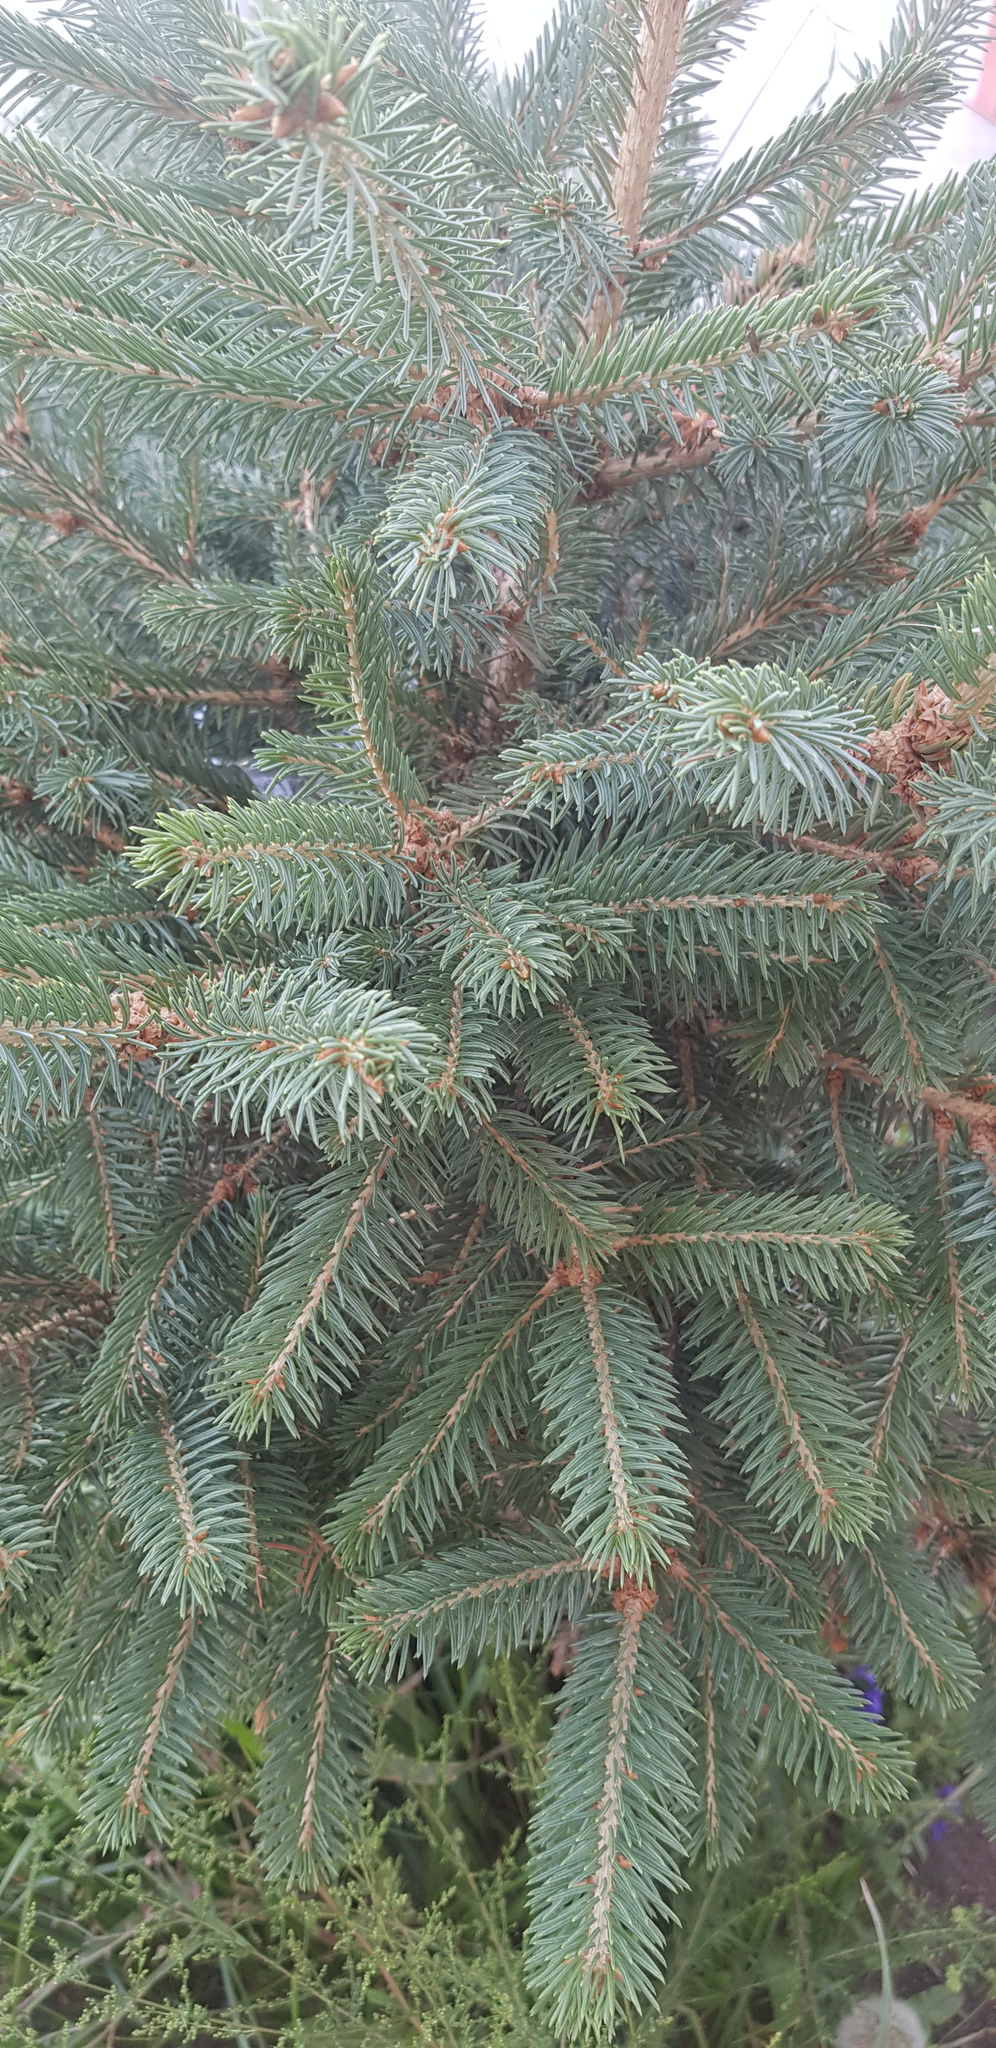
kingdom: Plantae
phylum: Tracheophyta
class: Pinopsida
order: Pinales
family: Pinaceae
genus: Picea
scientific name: Picea glauca
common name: White spruce
